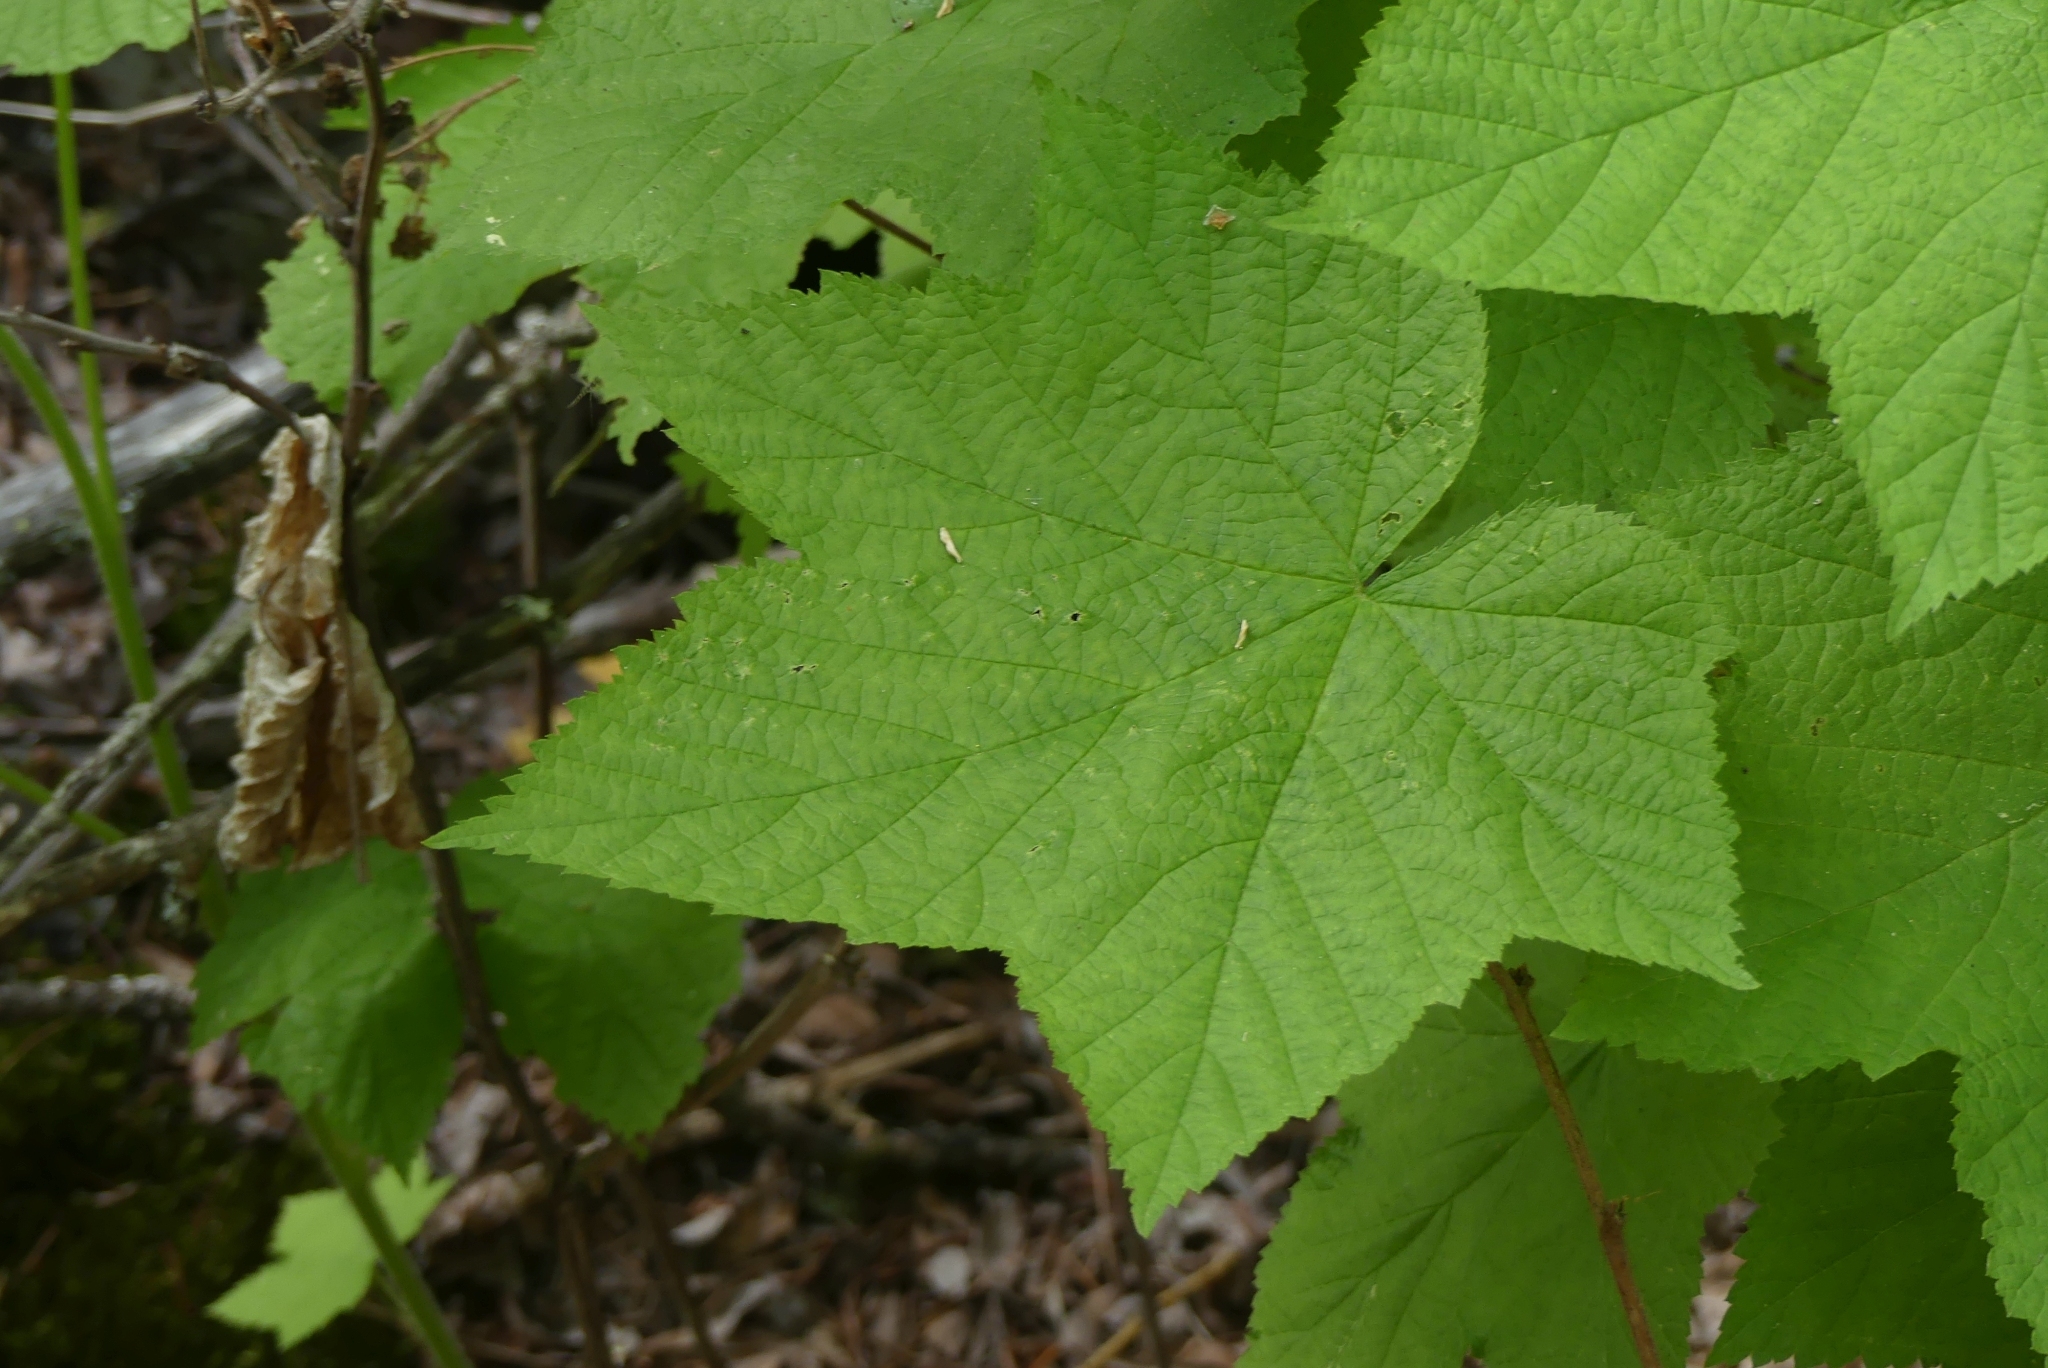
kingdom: Plantae
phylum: Tracheophyta
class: Magnoliopsida
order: Rosales
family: Rosaceae
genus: Rubus
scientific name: Rubus parviflorus
